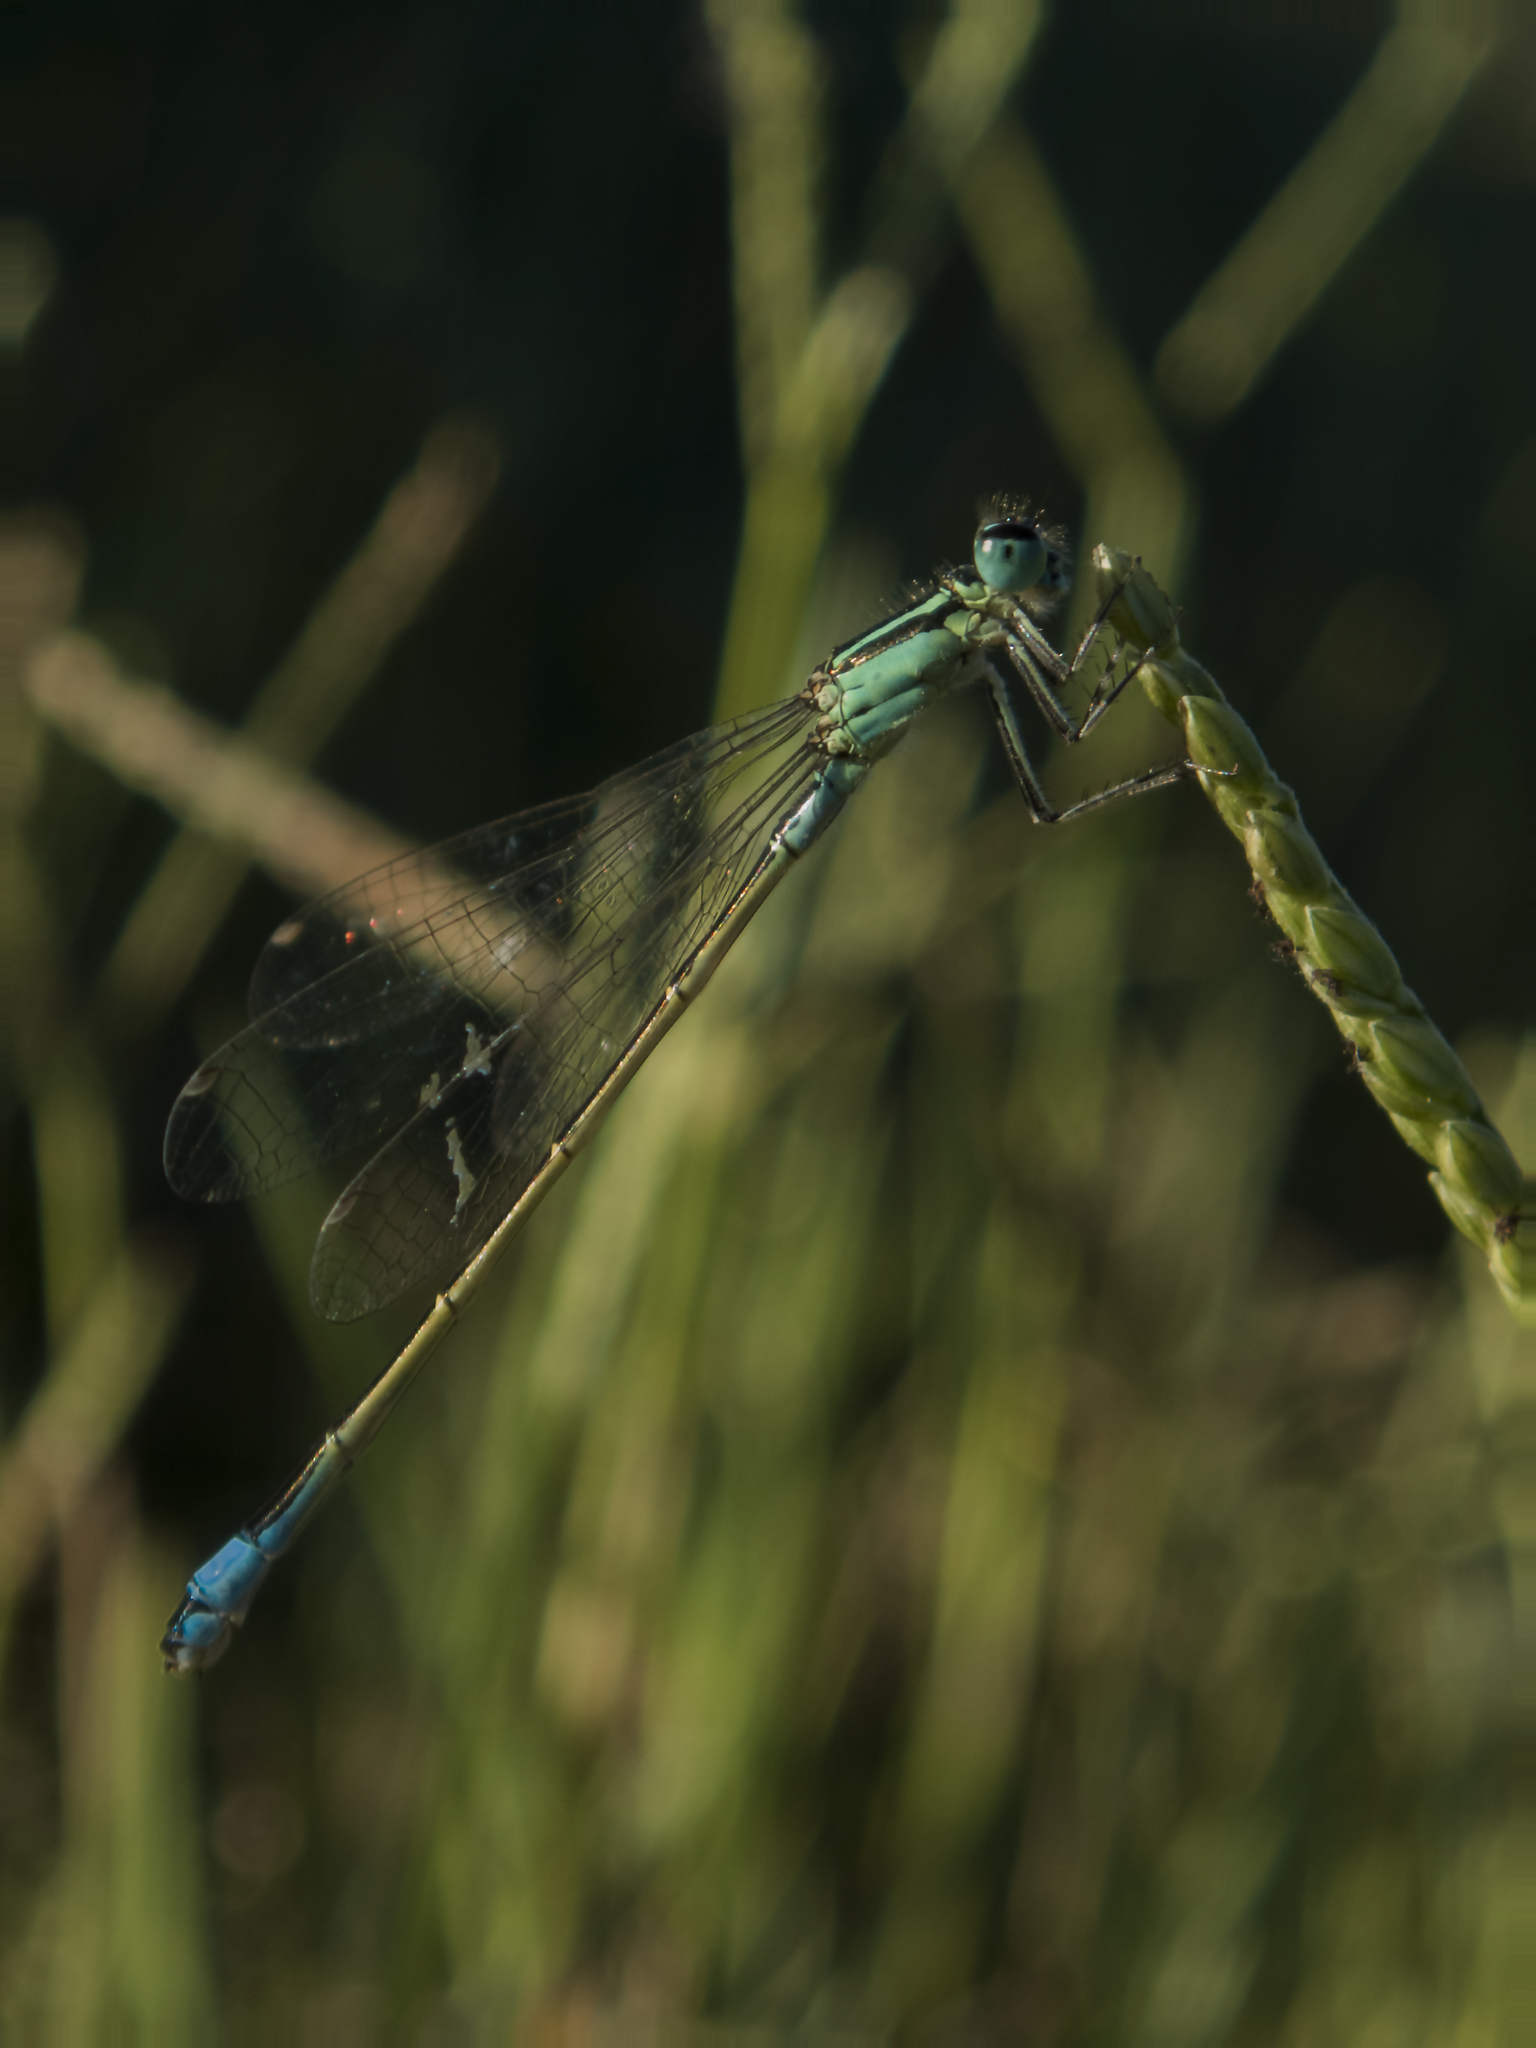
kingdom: Animalia
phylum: Arthropoda
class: Insecta
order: Odonata
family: Coenagrionidae
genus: Ischnura
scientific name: Ischnura elegans
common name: Blue-tailed damselfly
